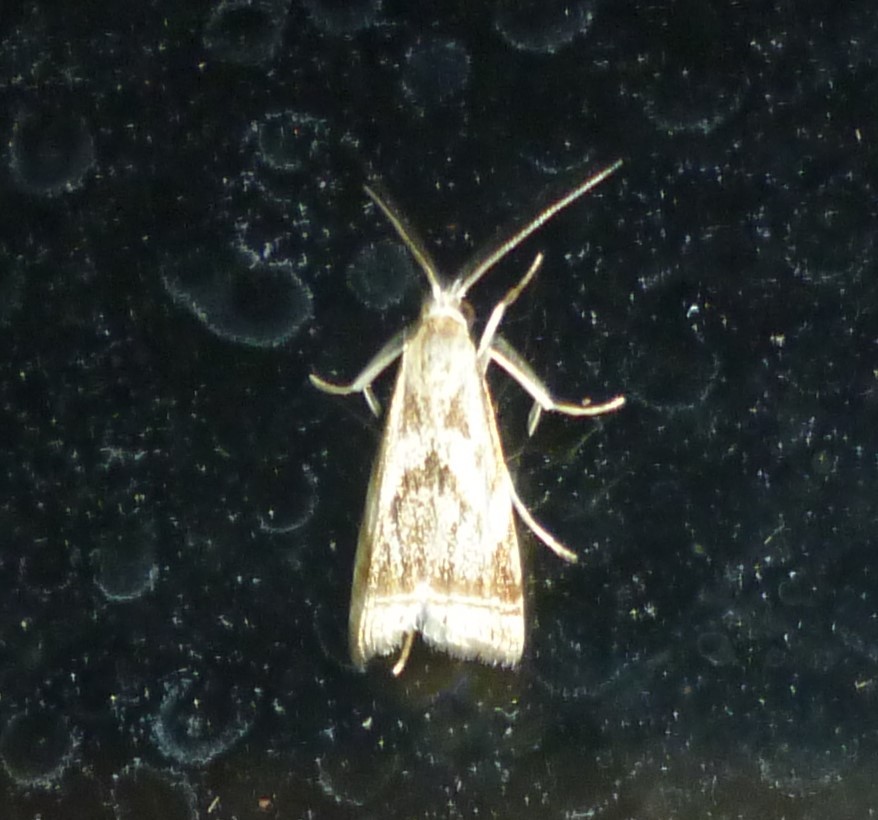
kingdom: Animalia
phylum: Arthropoda
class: Insecta
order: Lepidoptera
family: Crambidae
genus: Microcrambus
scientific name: Microcrambus elegans
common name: Elegant grass-veneer
